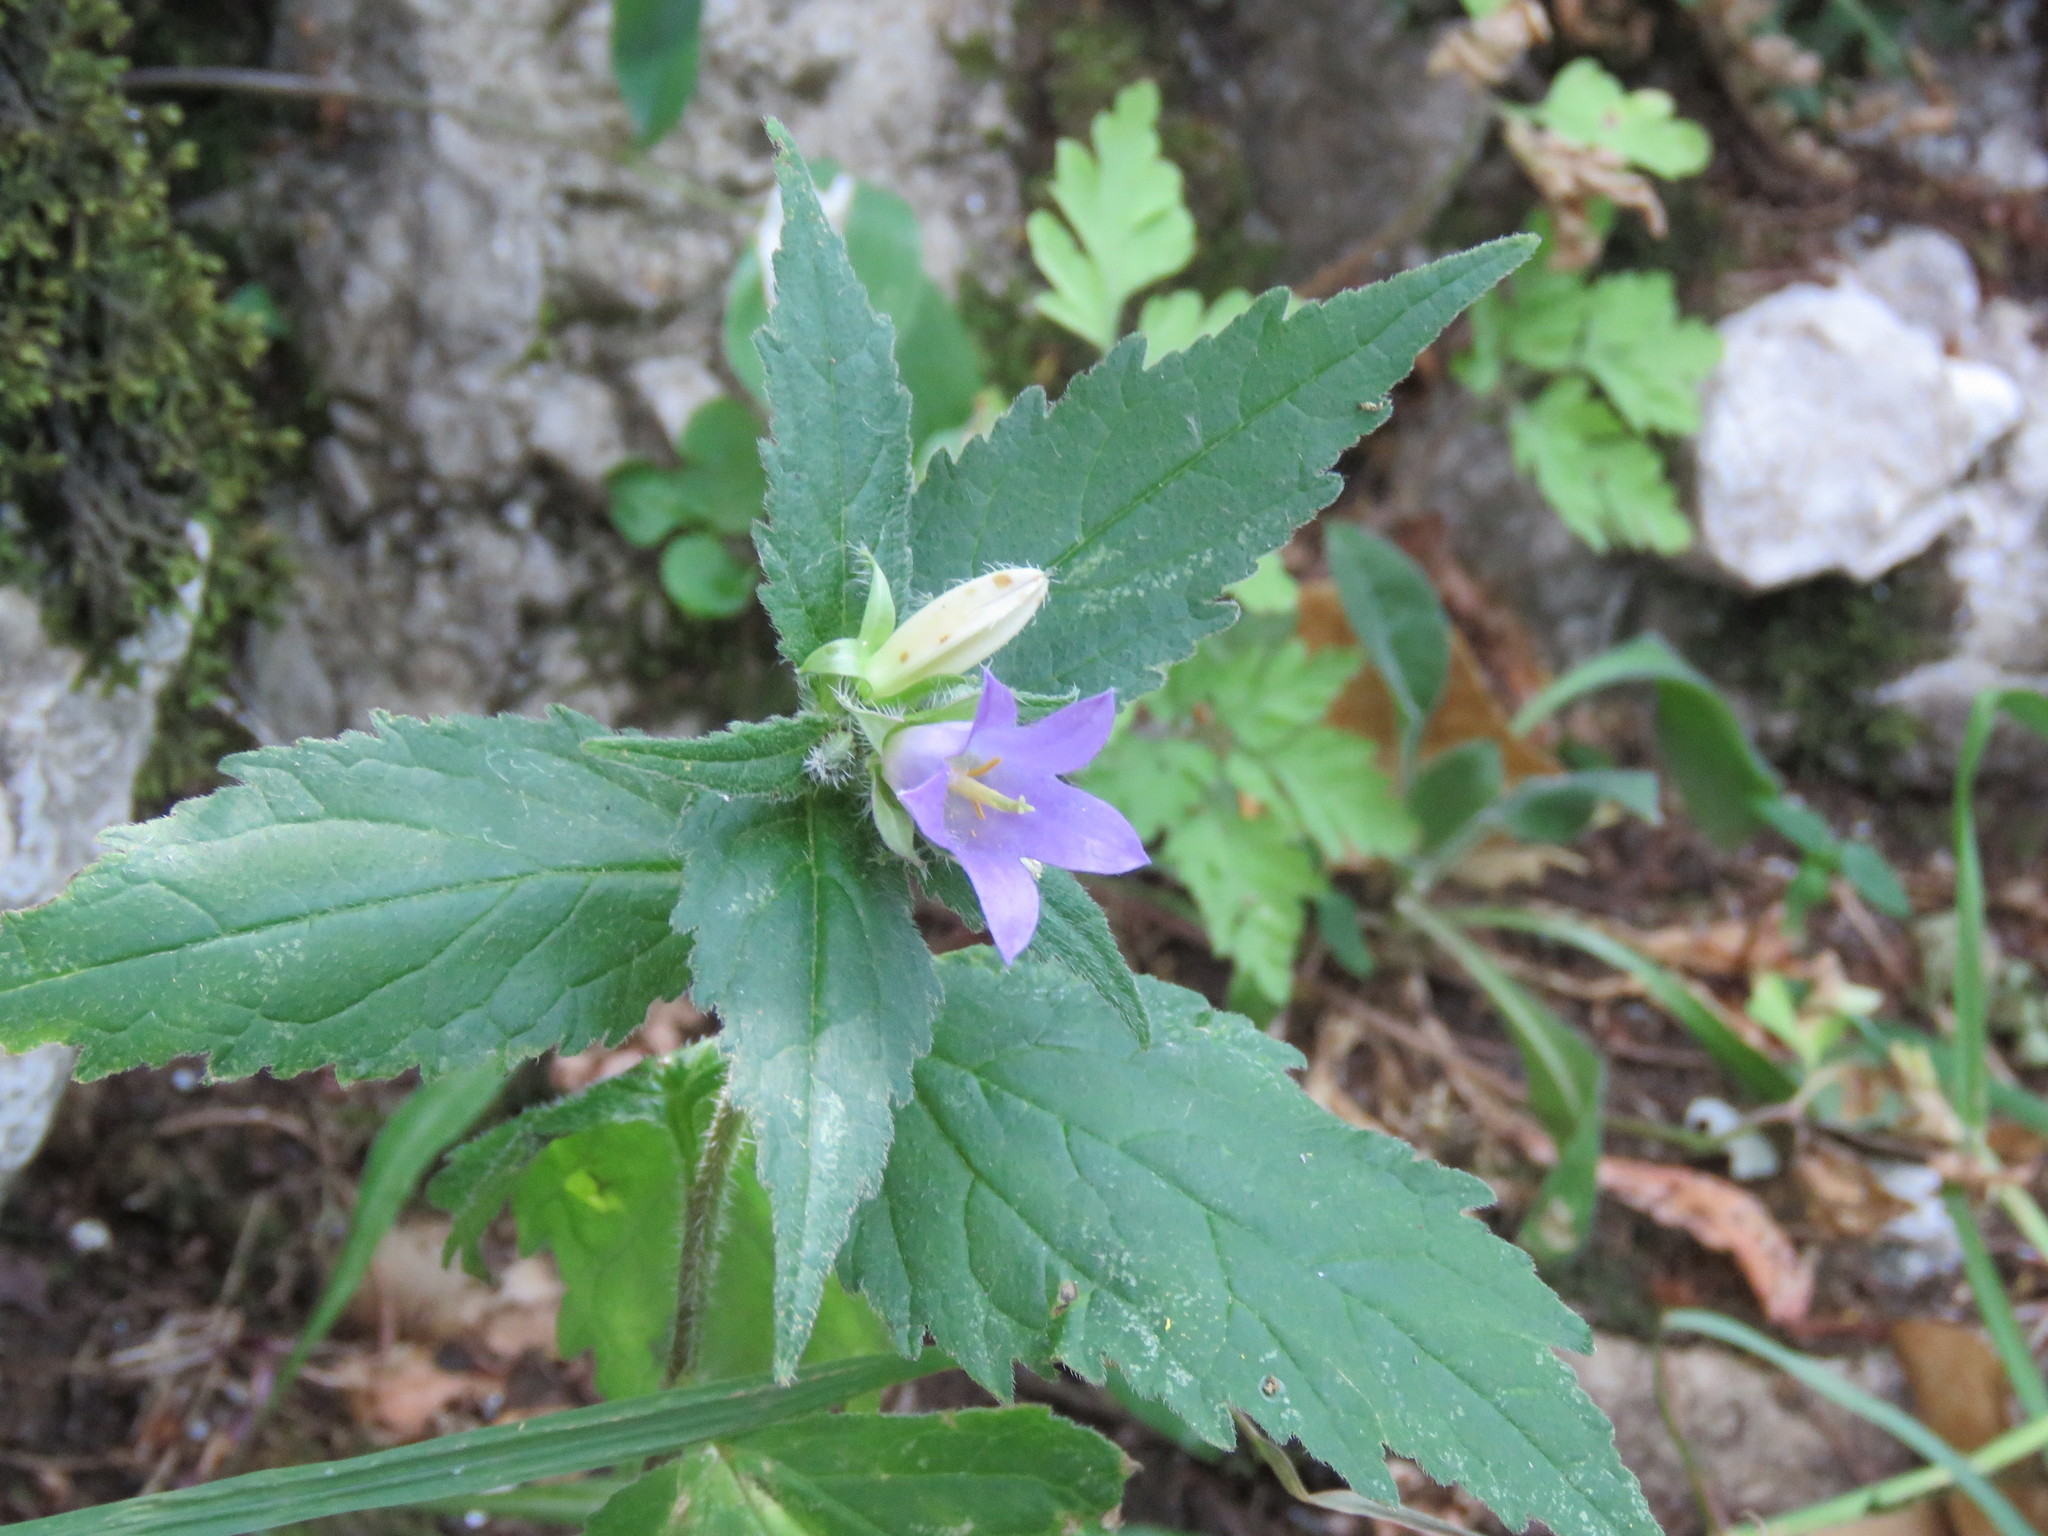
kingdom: Plantae
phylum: Tracheophyta
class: Magnoliopsida
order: Asterales
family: Campanulaceae
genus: Campanula
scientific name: Campanula trachelium
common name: Nettle-leaved bellflower
